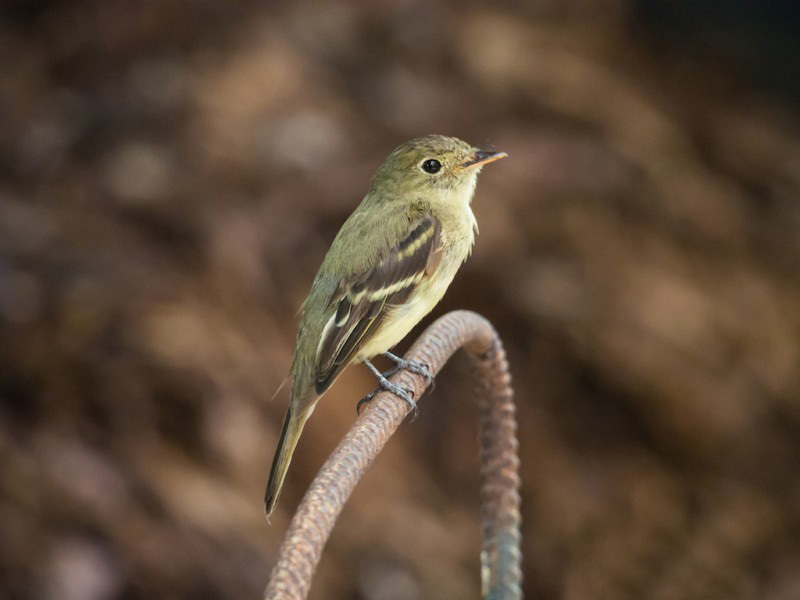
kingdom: Animalia
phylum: Chordata
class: Aves
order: Passeriformes
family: Tyrannidae
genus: Empidonax
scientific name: Empidonax flaviventris
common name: Yellow-bellied flycatcher
